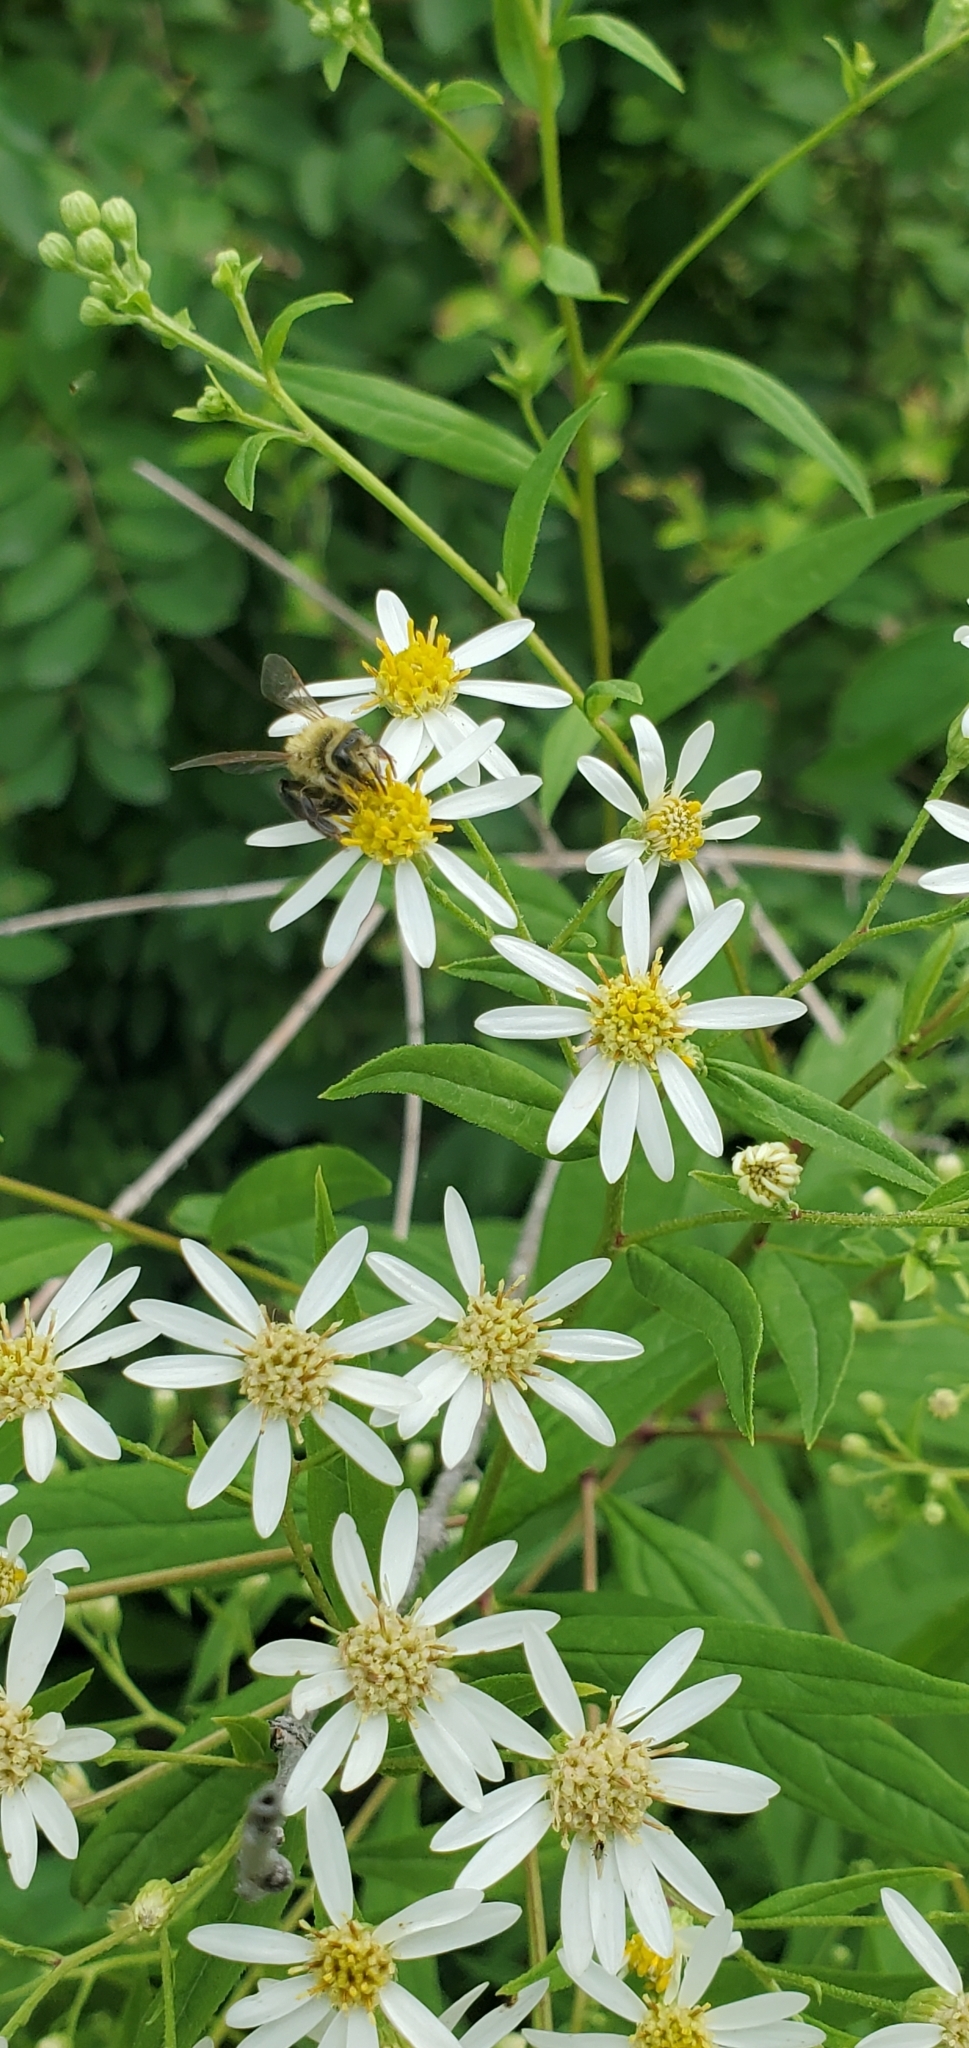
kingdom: Animalia
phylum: Arthropoda
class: Insecta
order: Hymenoptera
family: Andrenidae
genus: Andrena
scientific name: Andrena hirticincta
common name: Hairy-banded mining bee
